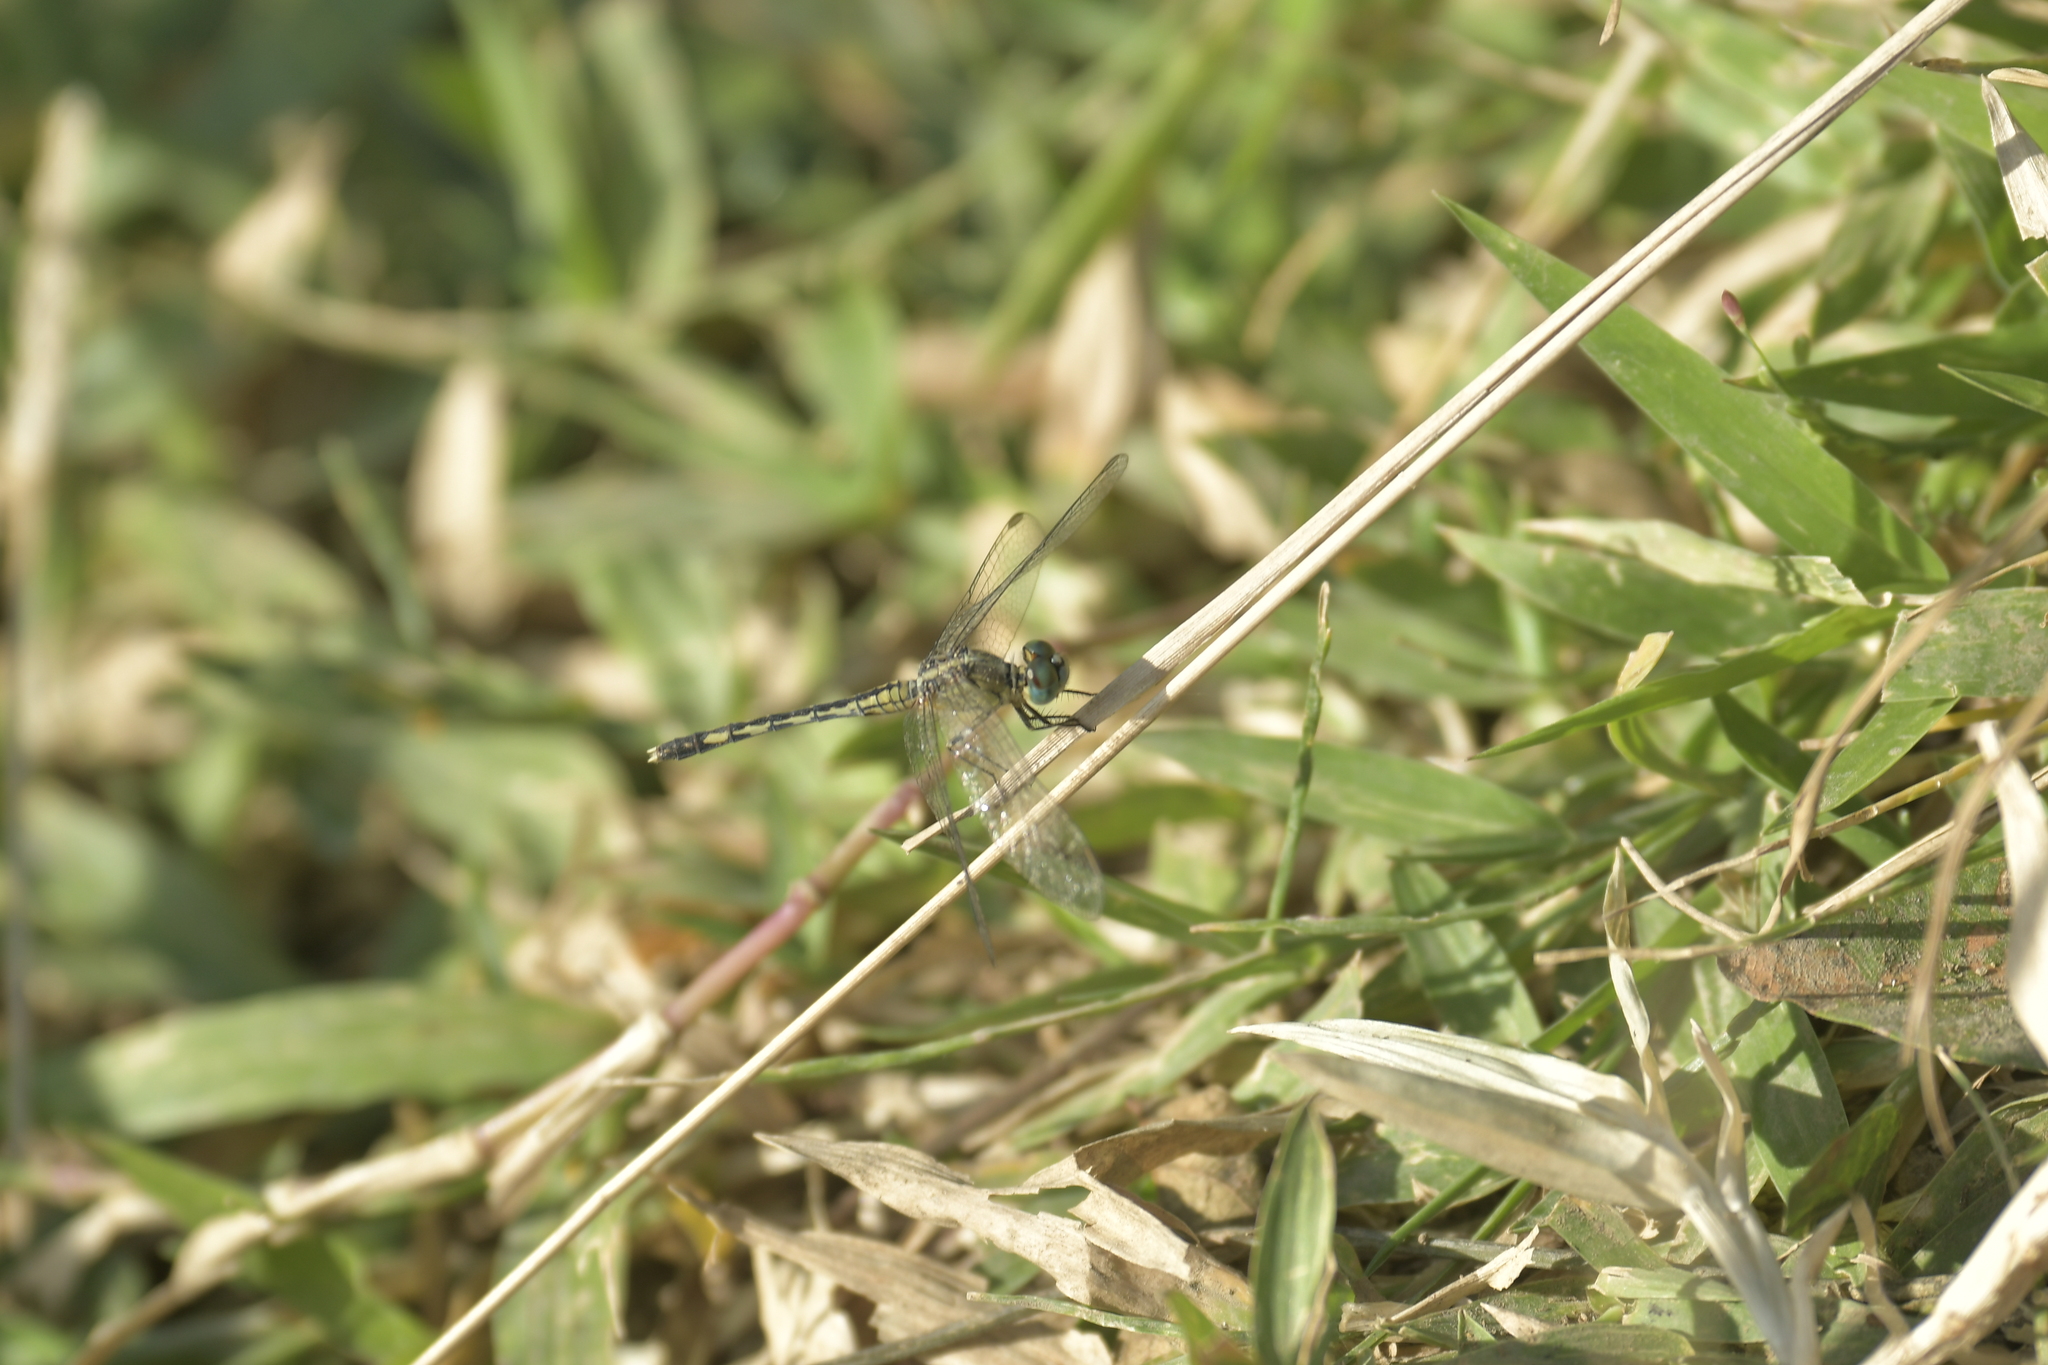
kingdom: Animalia
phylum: Arthropoda
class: Insecta
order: Odonata
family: Libellulidae
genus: Diplacodes
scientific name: Diplacodes trivialis
